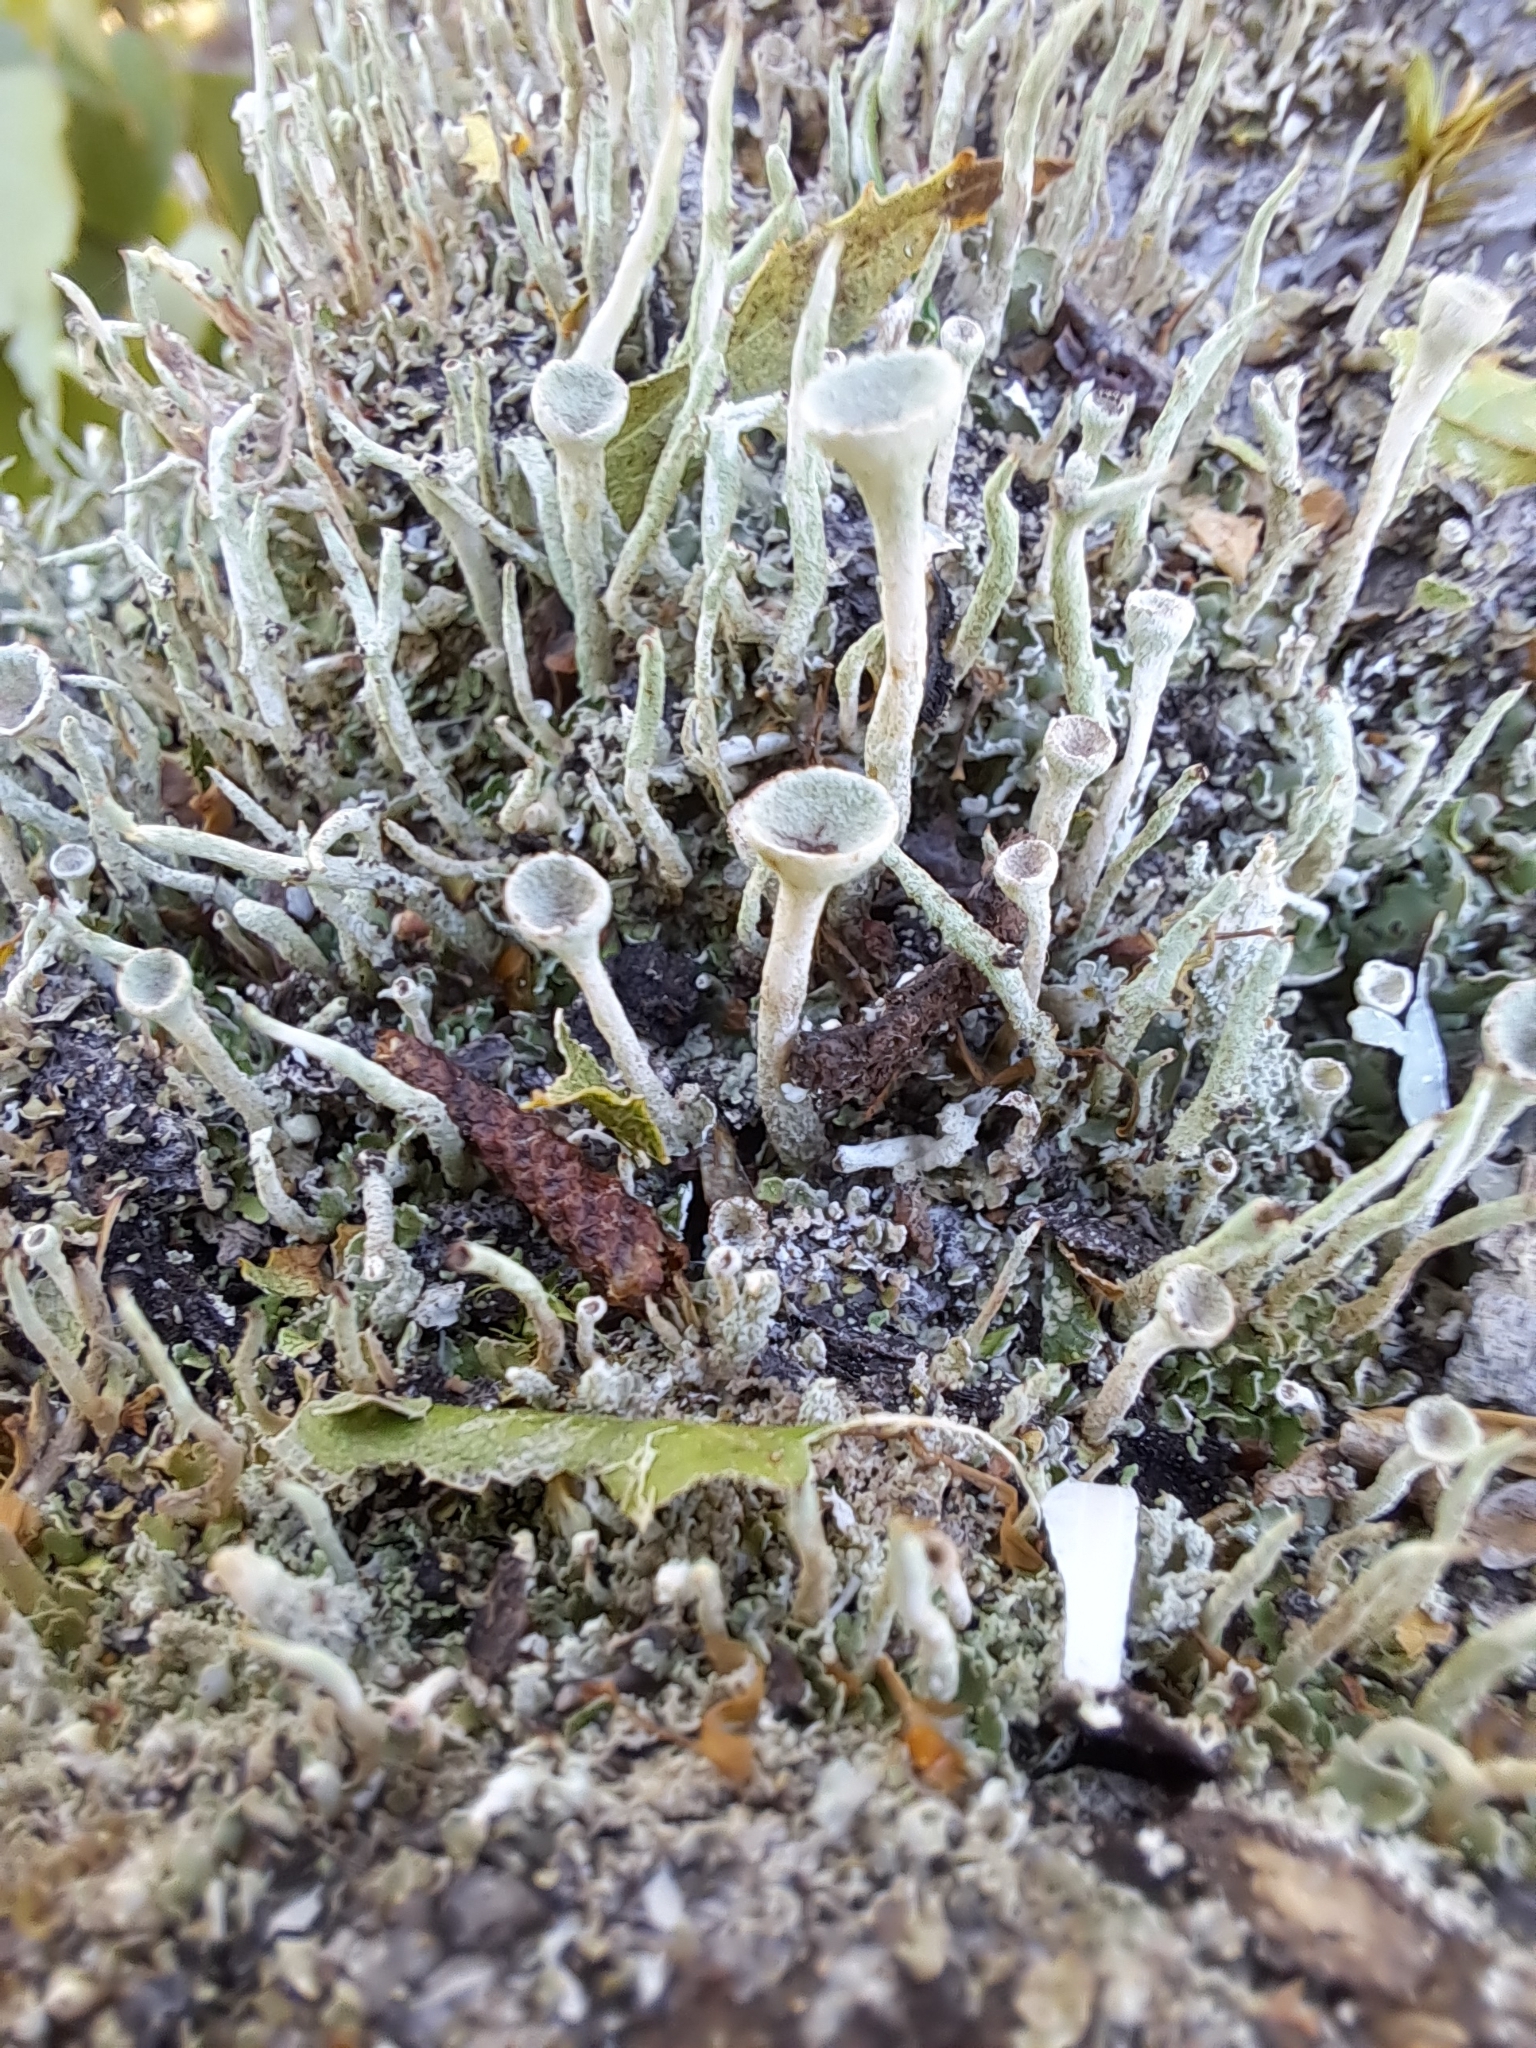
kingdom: Fungi
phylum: Ascomycota
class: Lecanoromycetes
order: Lecanorales
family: Cladoniaceae
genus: Cladonia
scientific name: Cladonia fimbriata
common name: Powdered trumpet lichen
